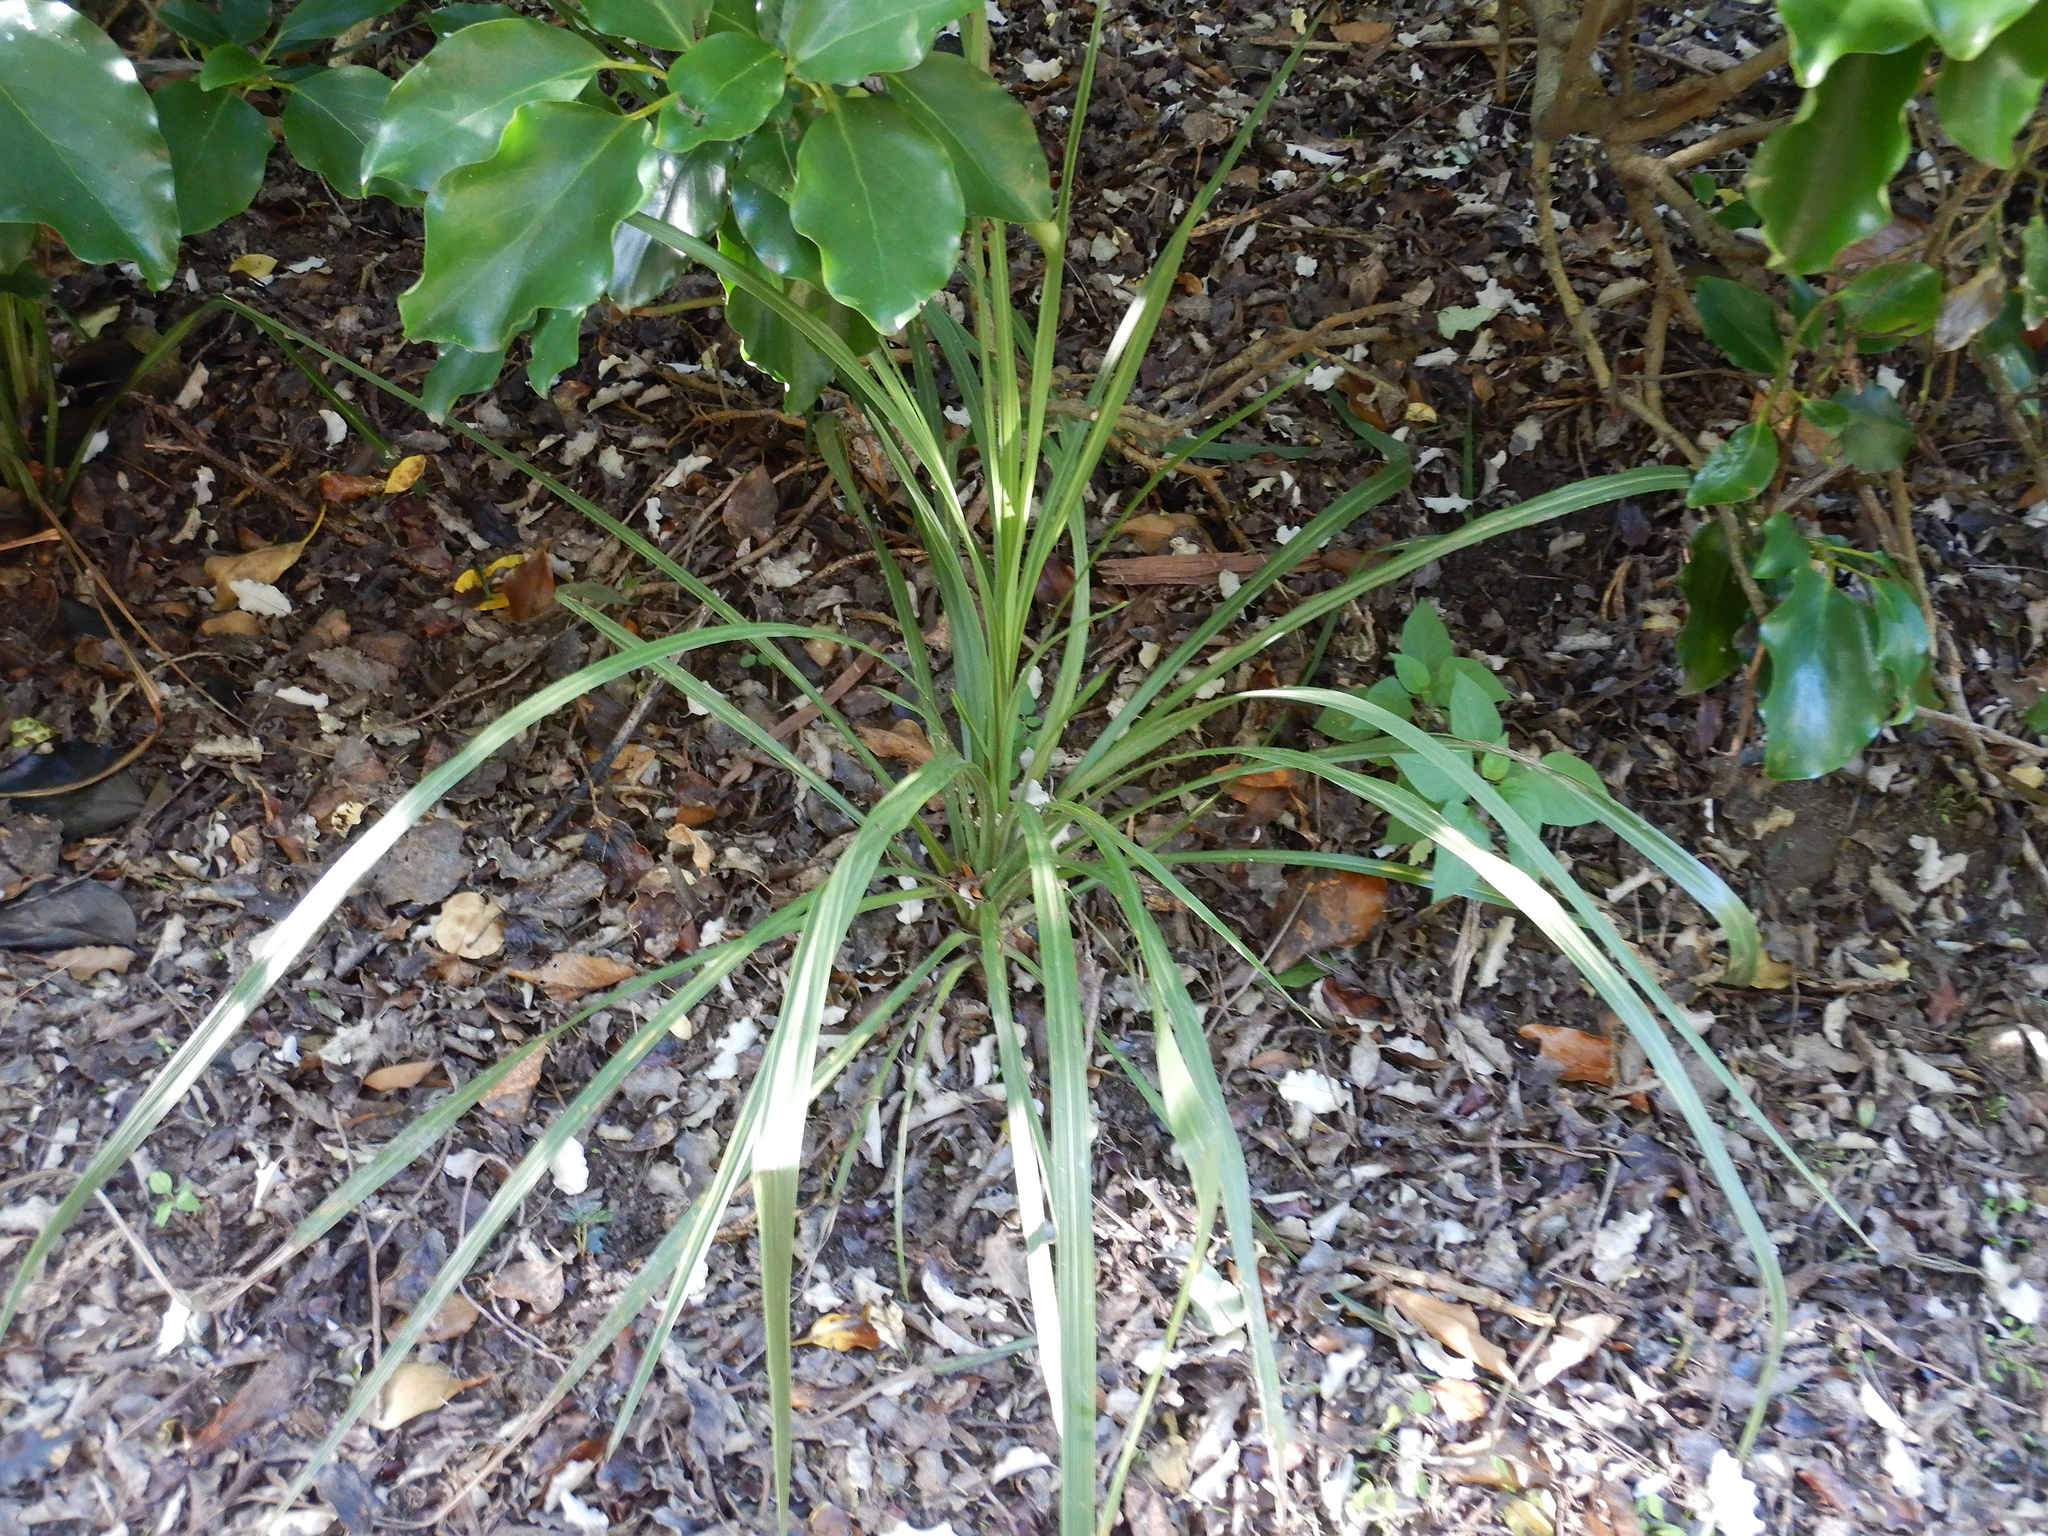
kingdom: Plantae
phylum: Tracheophyta
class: Liliopsida
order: Asparagales
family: Asparagaceae
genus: Cordyline
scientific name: Cordyline australis
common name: Cabbage-palm
